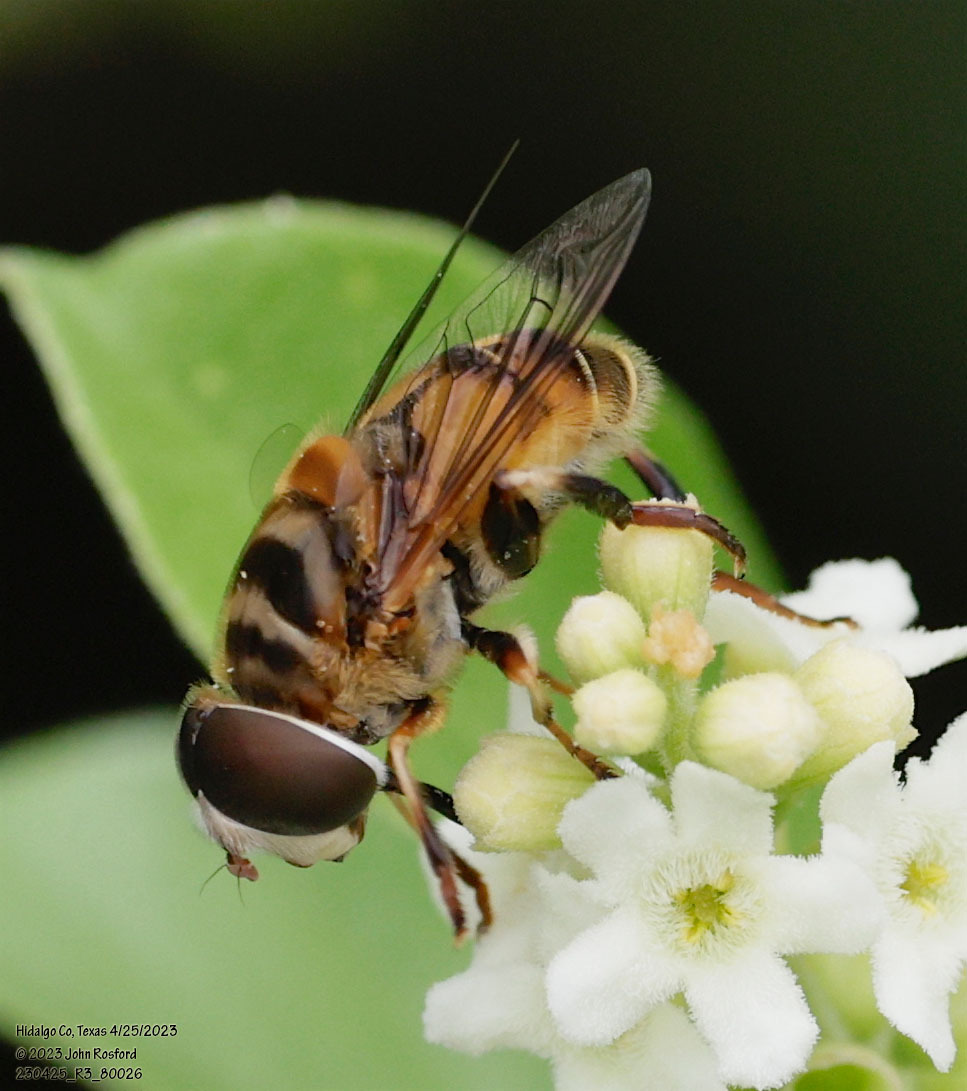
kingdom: Animalia
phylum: Arthropoda
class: Insecta
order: Diptera
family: Syrphidae
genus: Palpada
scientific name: Palpada vinetorum
